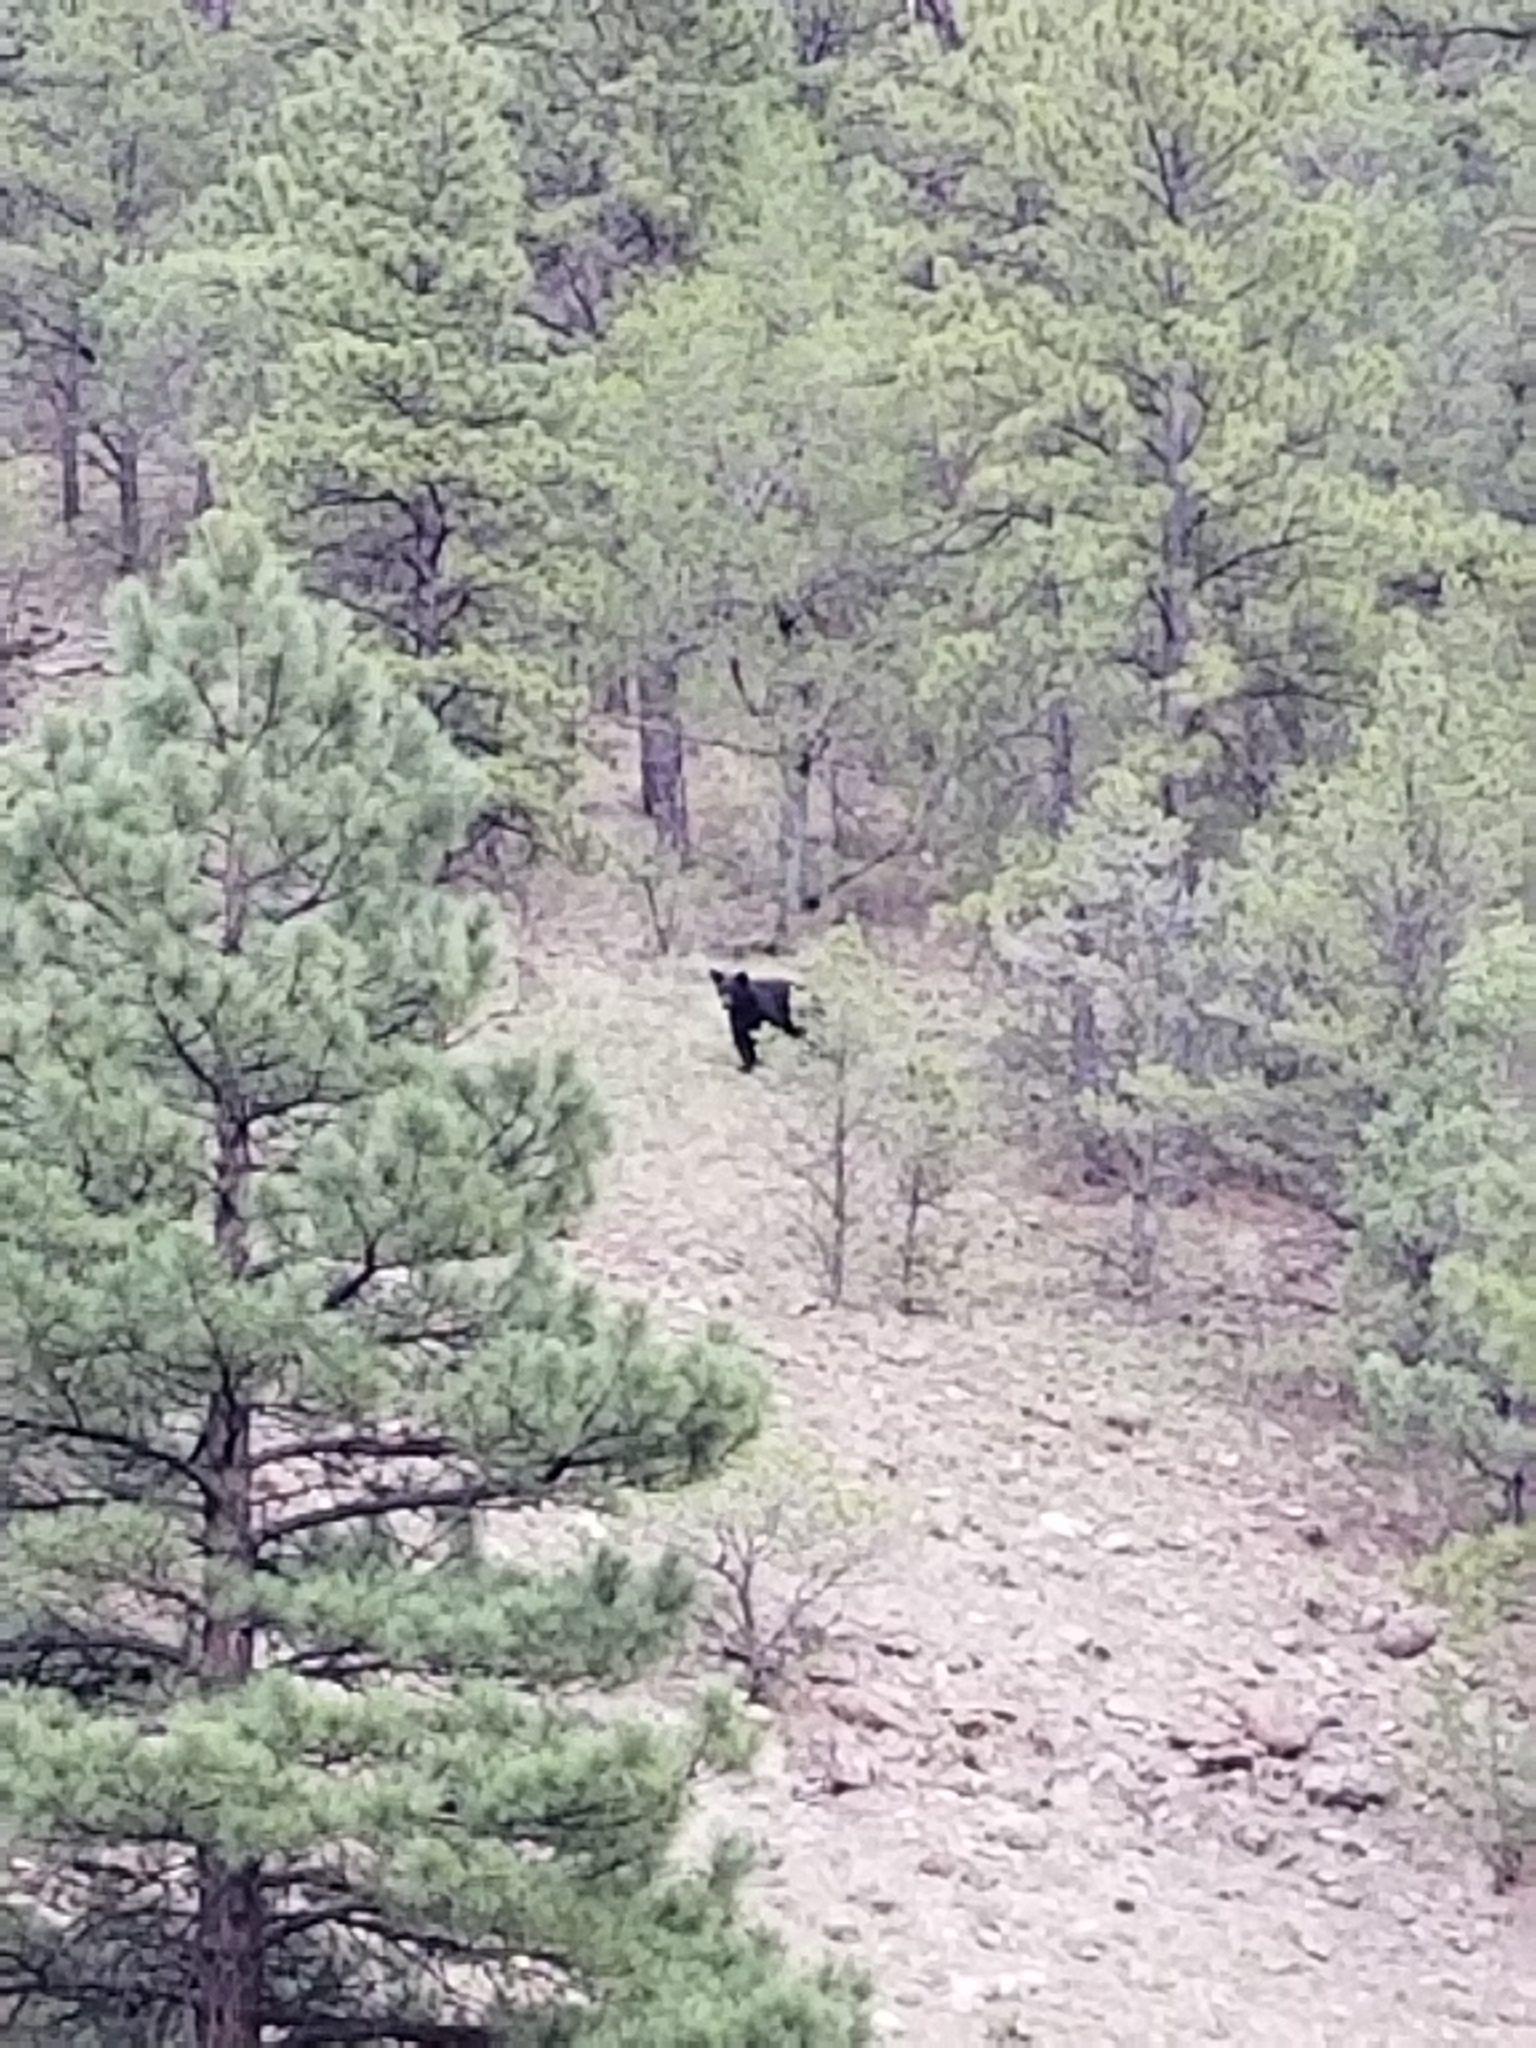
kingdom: Animalia
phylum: Chordata
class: Mammalia
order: Carnivora
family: Ursidae
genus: Ursus
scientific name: Ursus americanus
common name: American black bear
